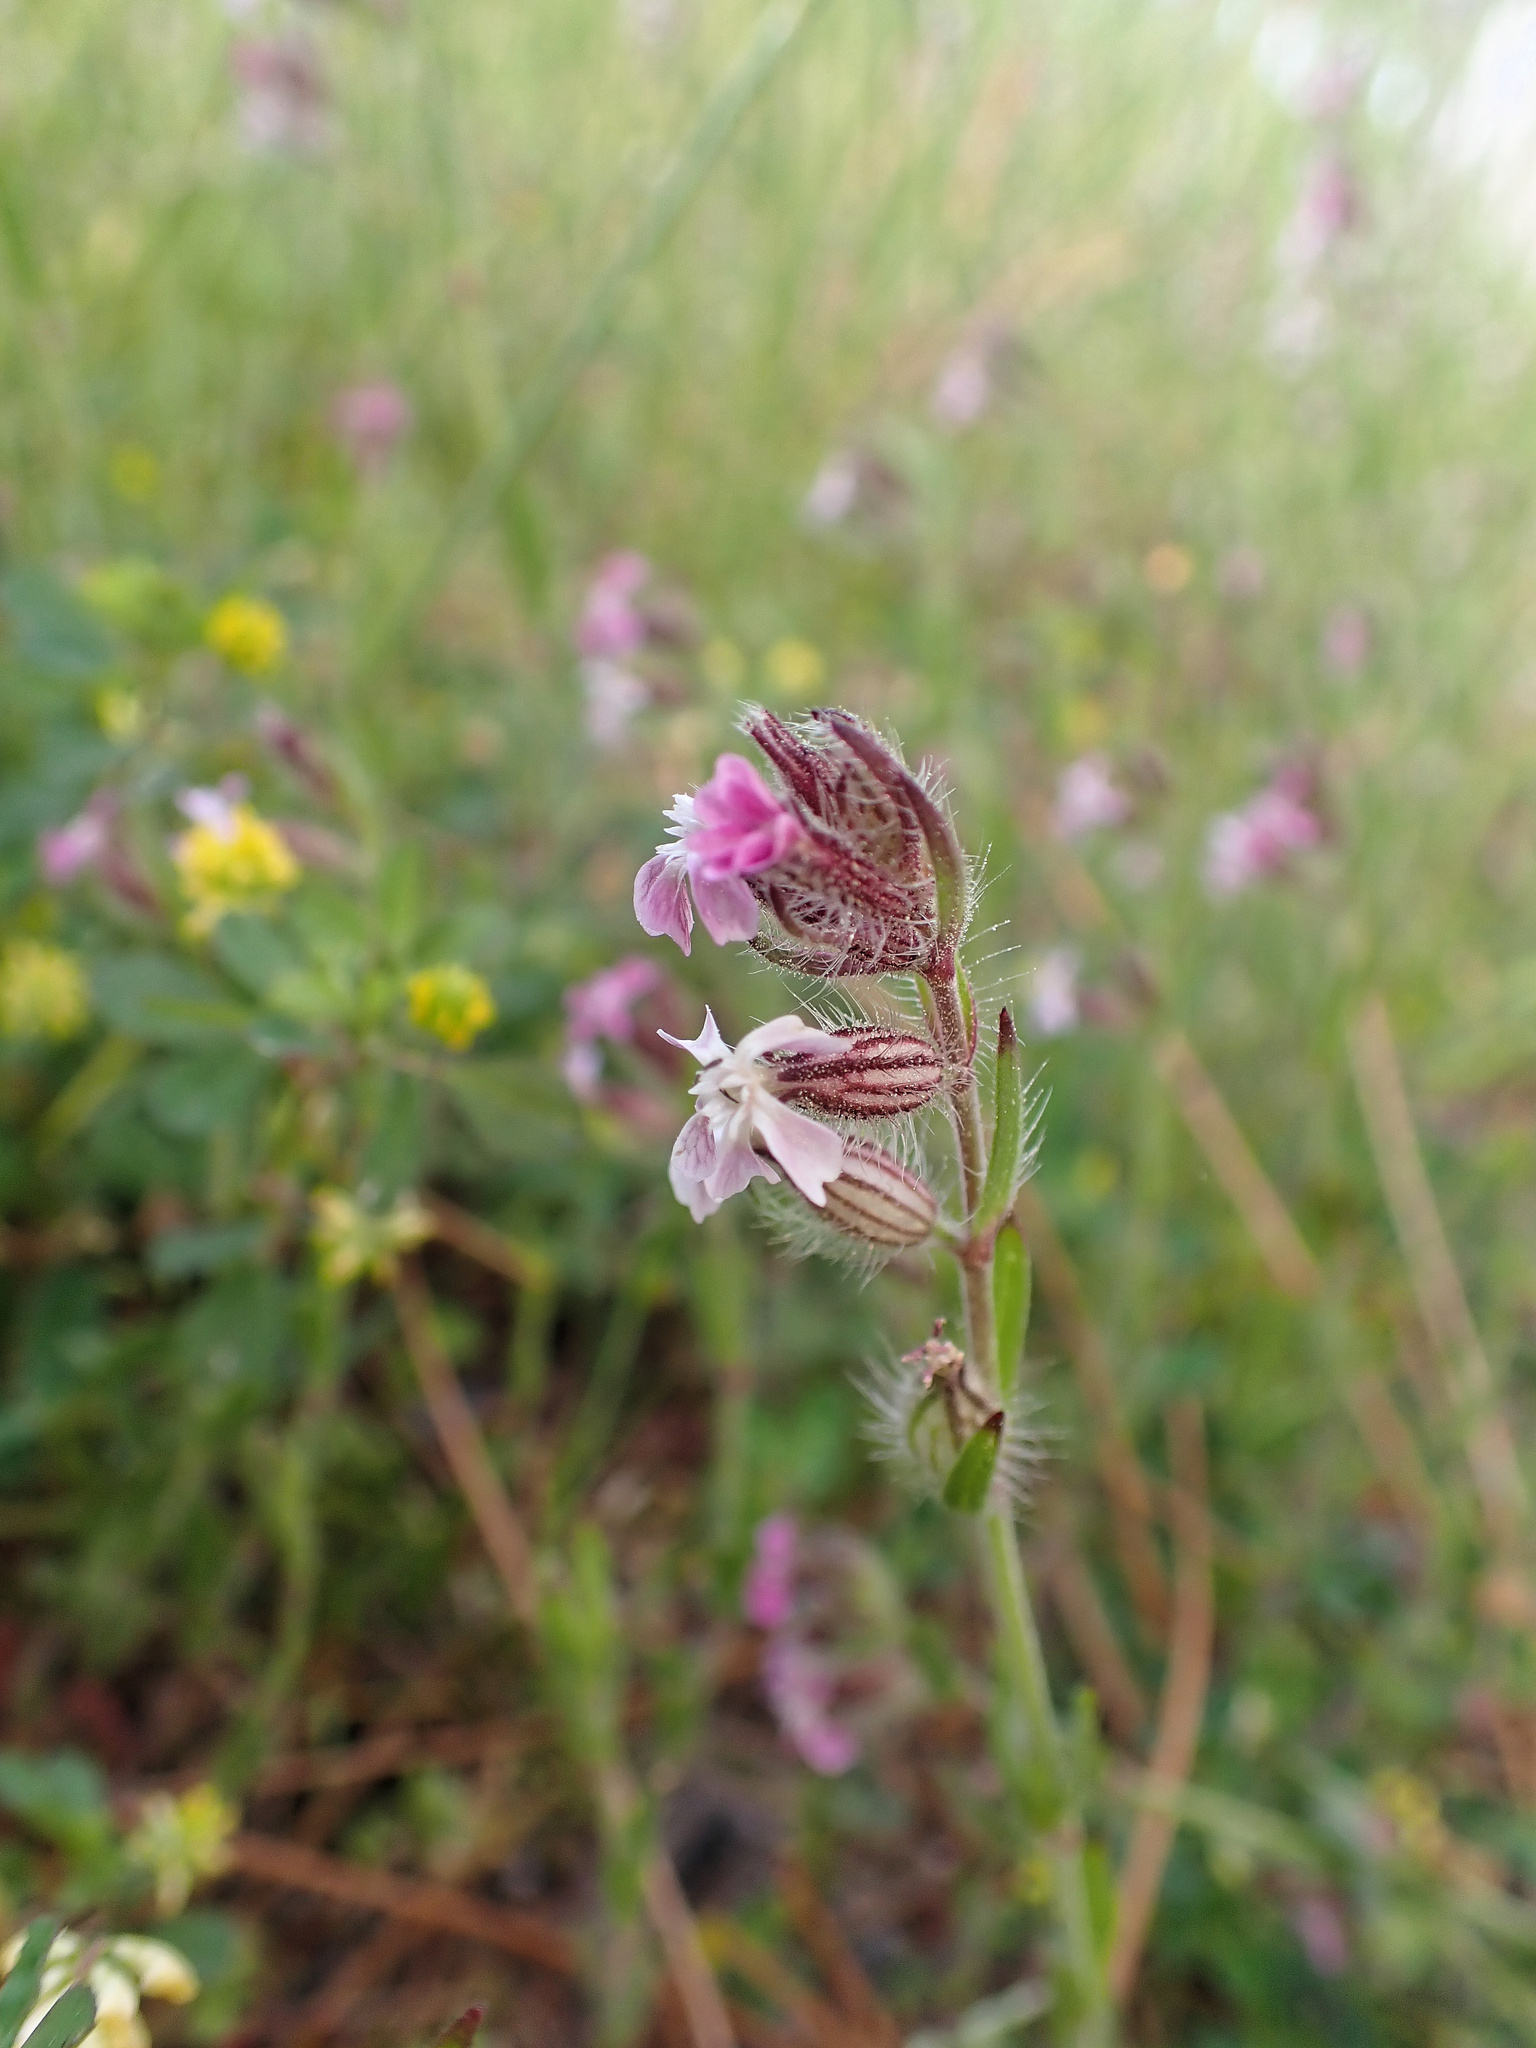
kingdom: Plantae
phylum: Tracheophyta
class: Magnoliopsida
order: Caryophyllales
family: Caryophyllaceae
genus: Silene
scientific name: Silene gallica
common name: Small-flowered catchfly
